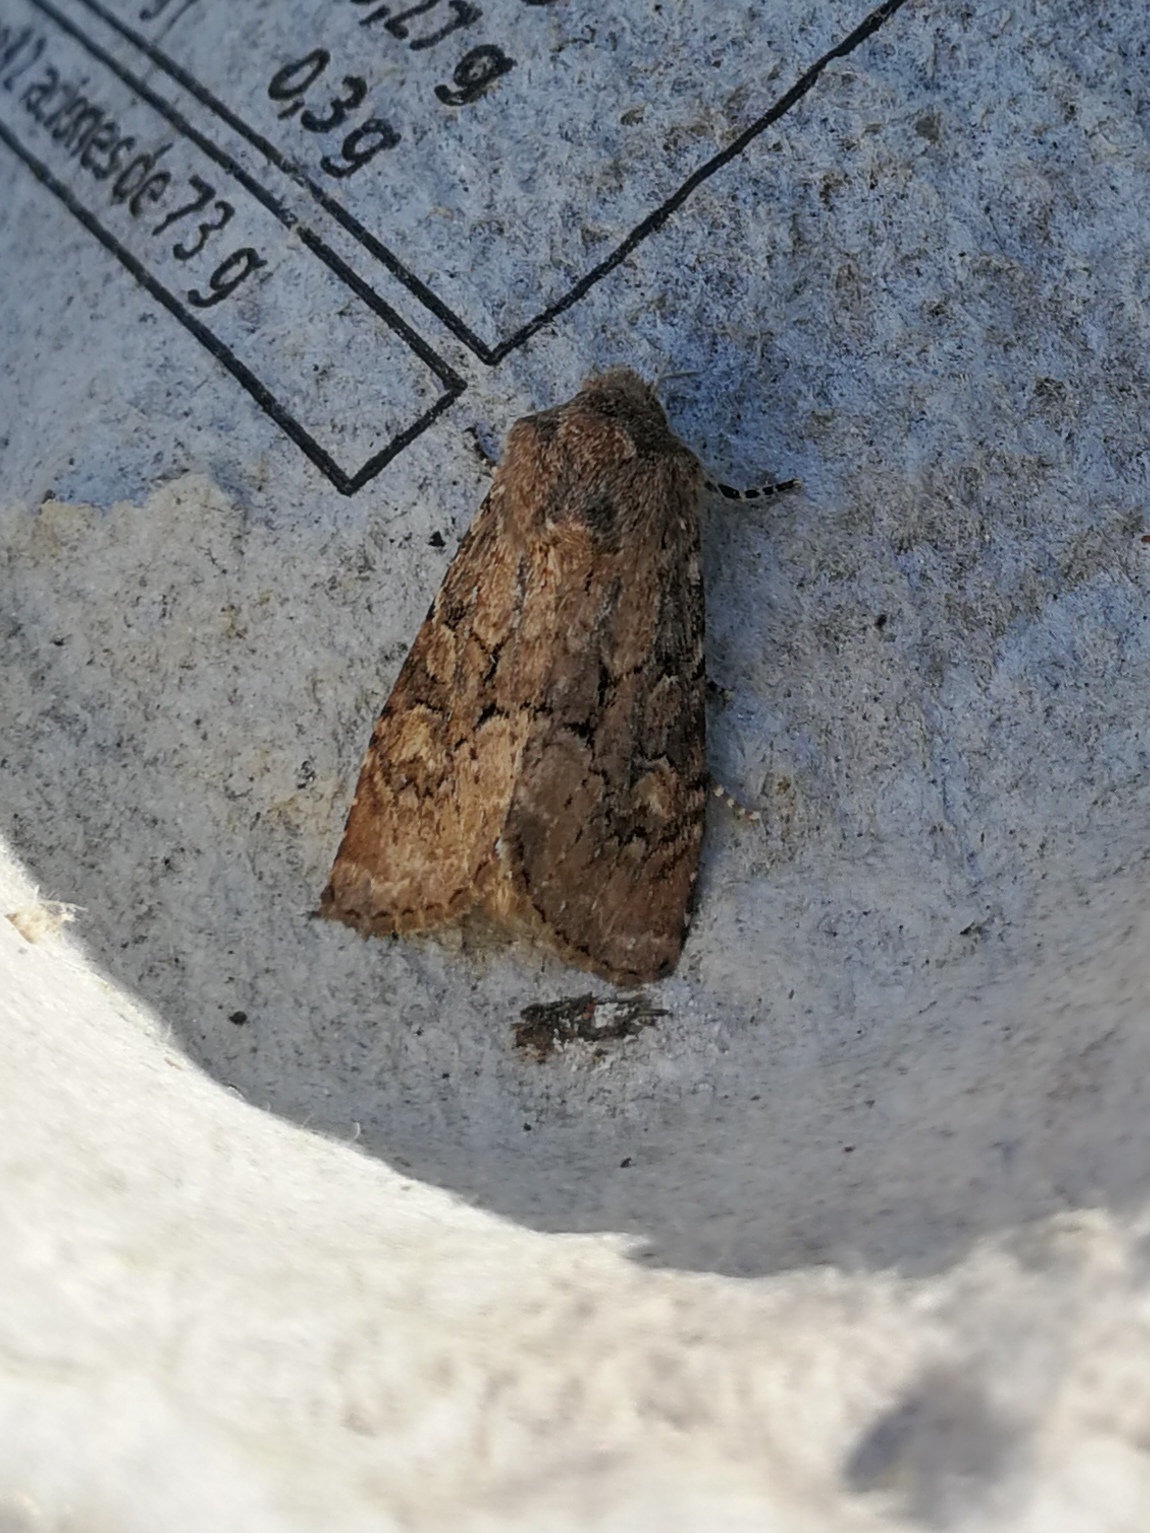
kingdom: Animalia
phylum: Arthropoda
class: Insecta
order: Lepidoptera
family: Noctuidae
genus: Luperina
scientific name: Luperina testacea
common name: Flounced rustic
